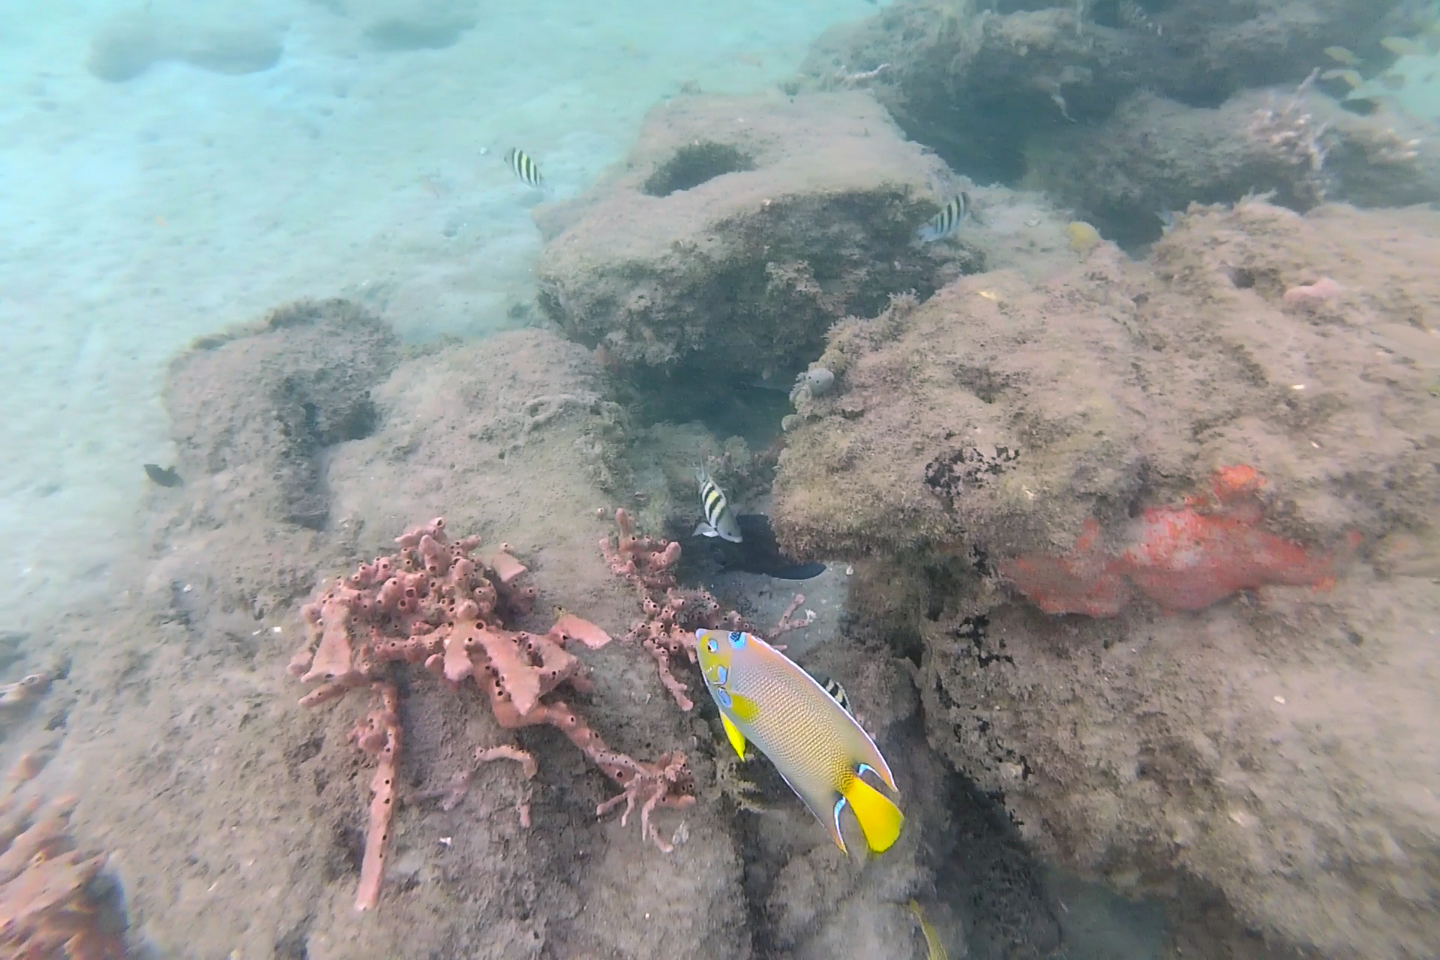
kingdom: Animalia
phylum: Chordata
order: Perciformes
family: Pomacanthidae
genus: Holacanthus
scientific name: Holacanthus ciliaris
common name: Queen angelfish
